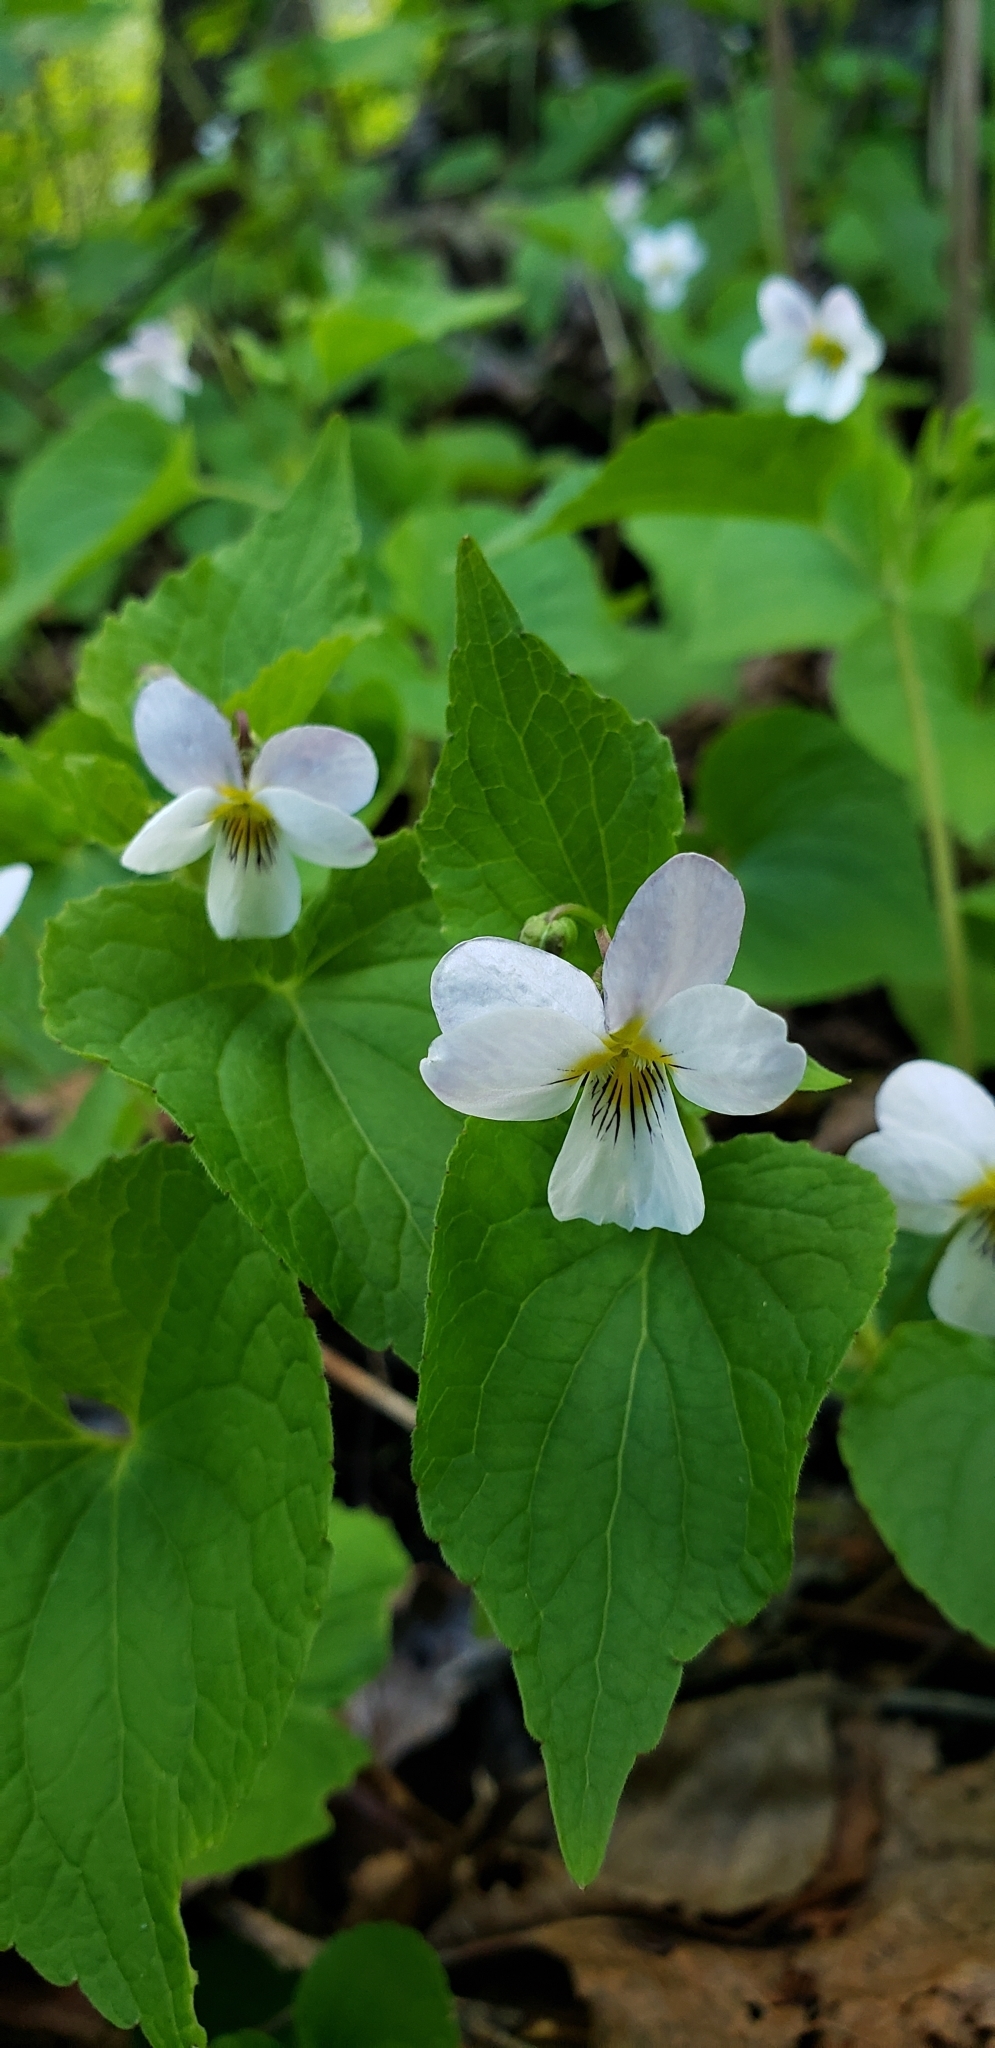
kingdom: Plantae
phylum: Tracheophyta
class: Magnoliopsida
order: Malpighiales
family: Violaceae
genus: Viola
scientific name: Viola canadensis
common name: Canada violet
